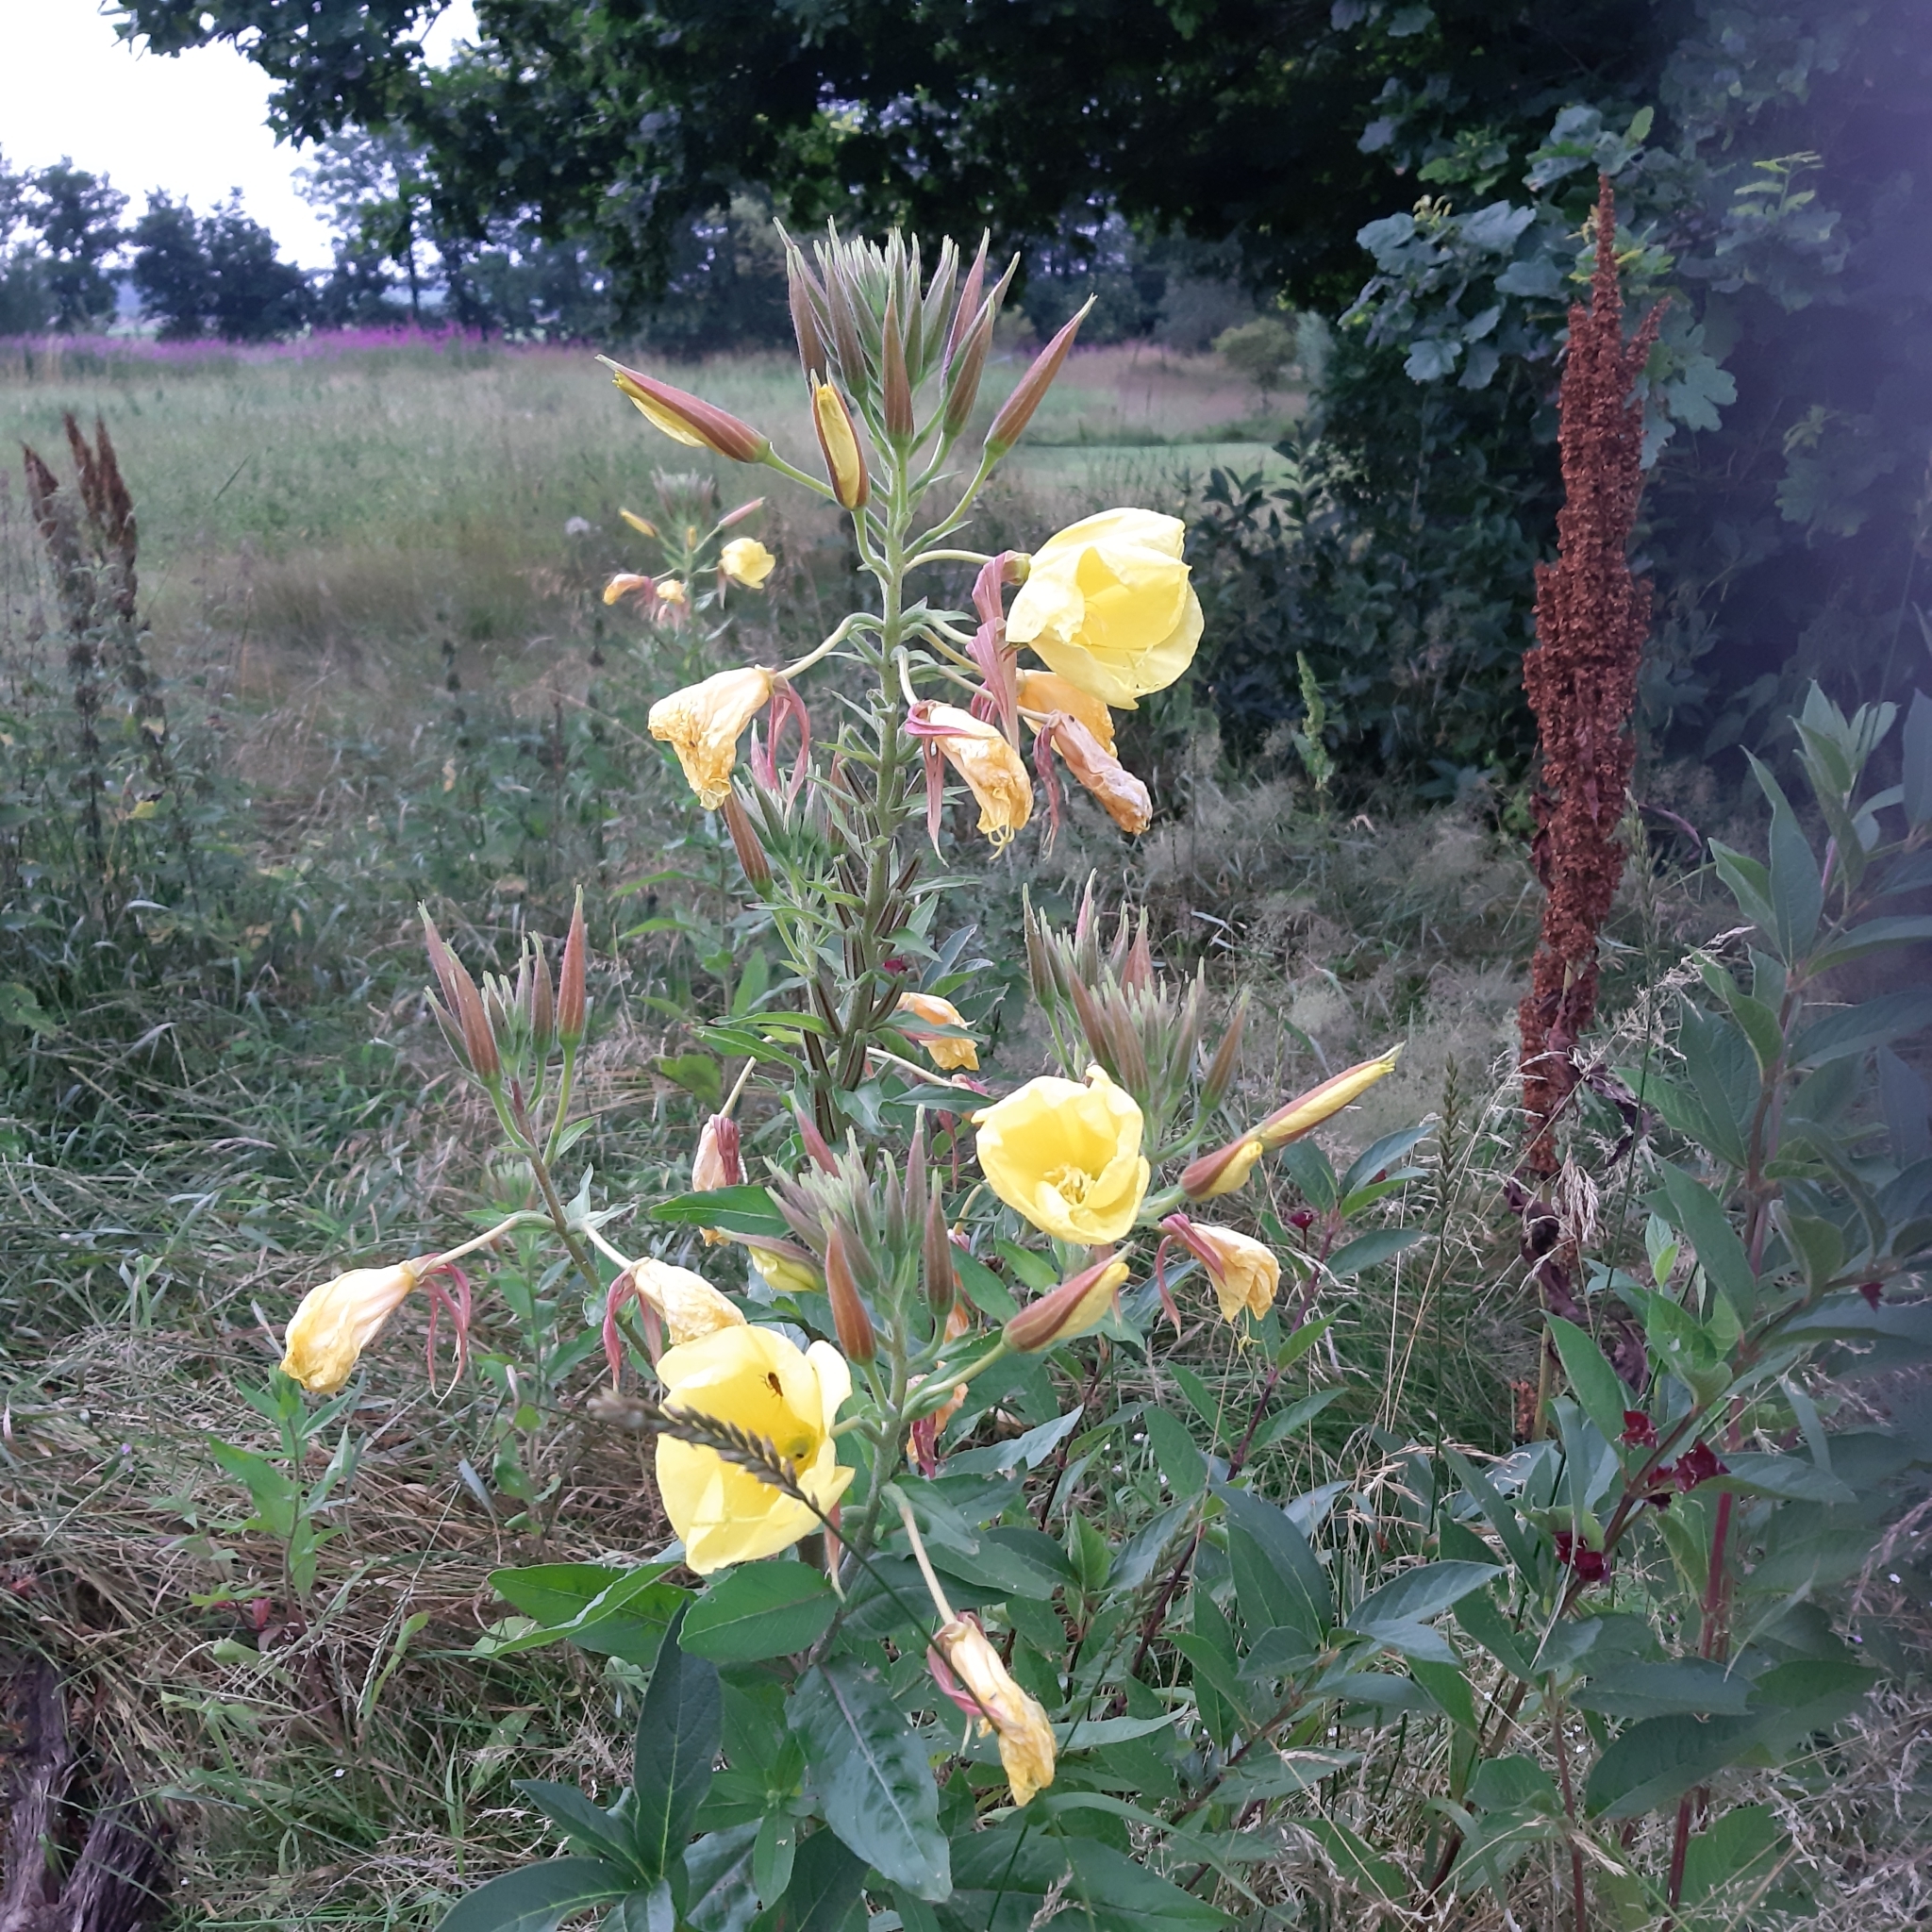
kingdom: Plantae
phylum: Tracheophyta
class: Magnoliopsida
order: Myrtales
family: Onagraceae
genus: Oenothera
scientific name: Oenothera glazioviana
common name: Large-flowered evening-primrose
